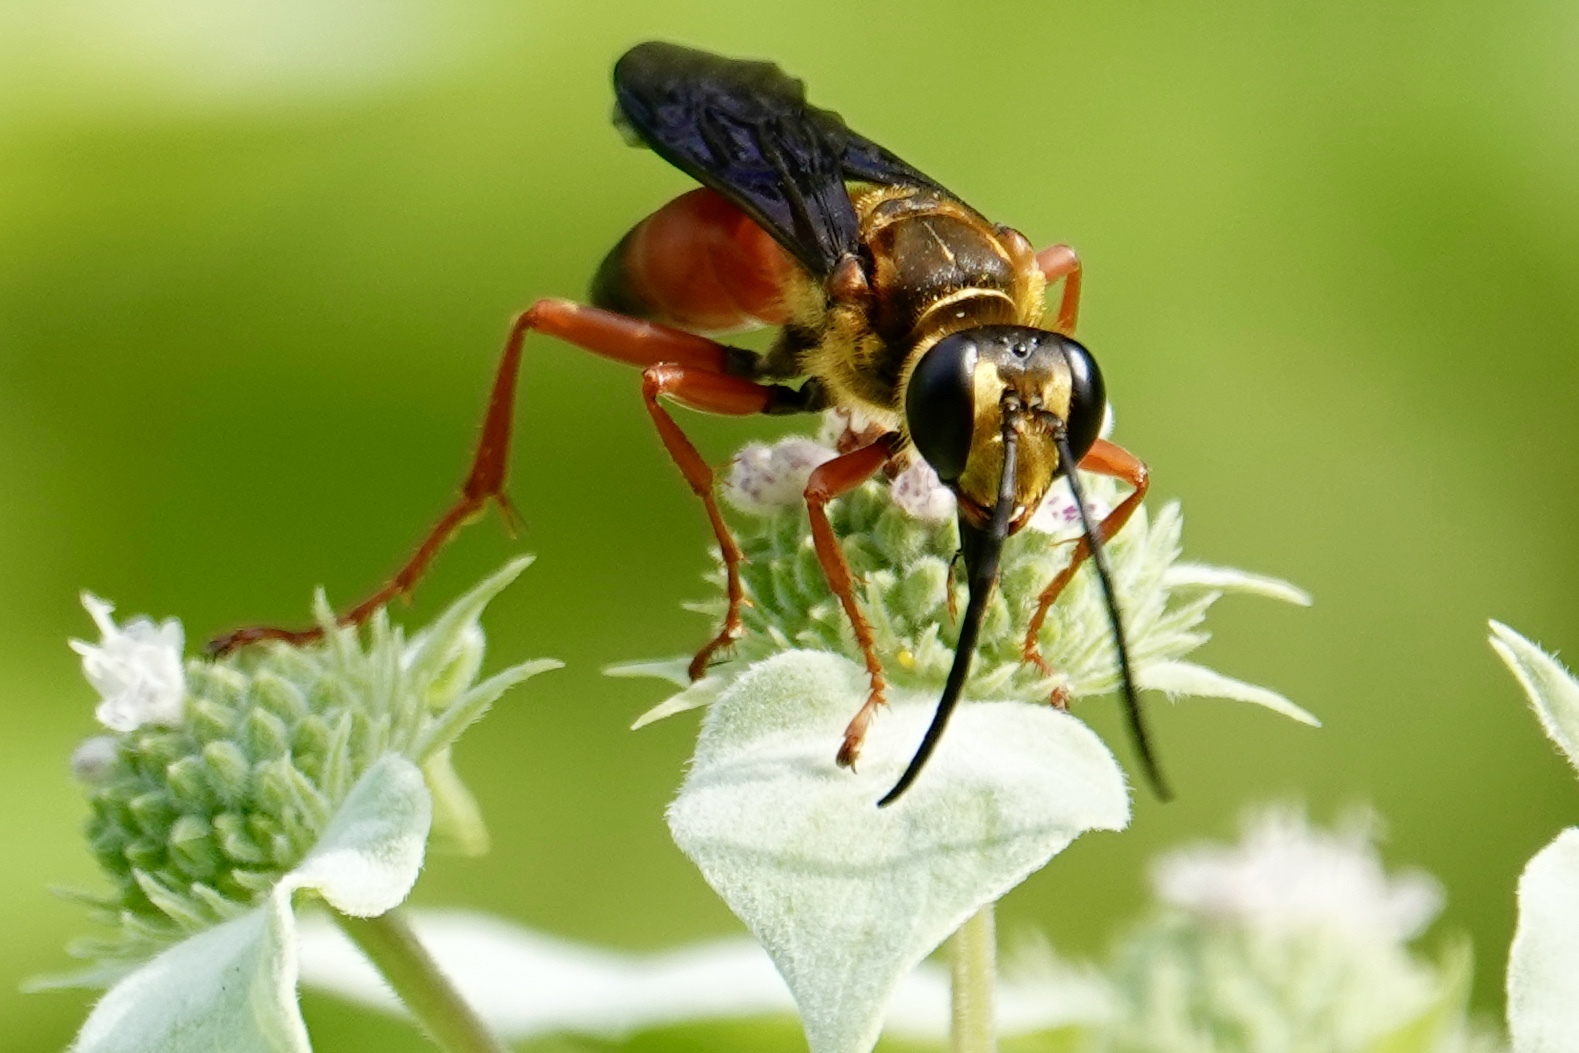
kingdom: Animalia
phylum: Arthropoda
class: Insecta
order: Hymenoptera
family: Sphecidae
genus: Sphex
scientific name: Sphex ichneumoneus
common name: Great golden digger wasp
